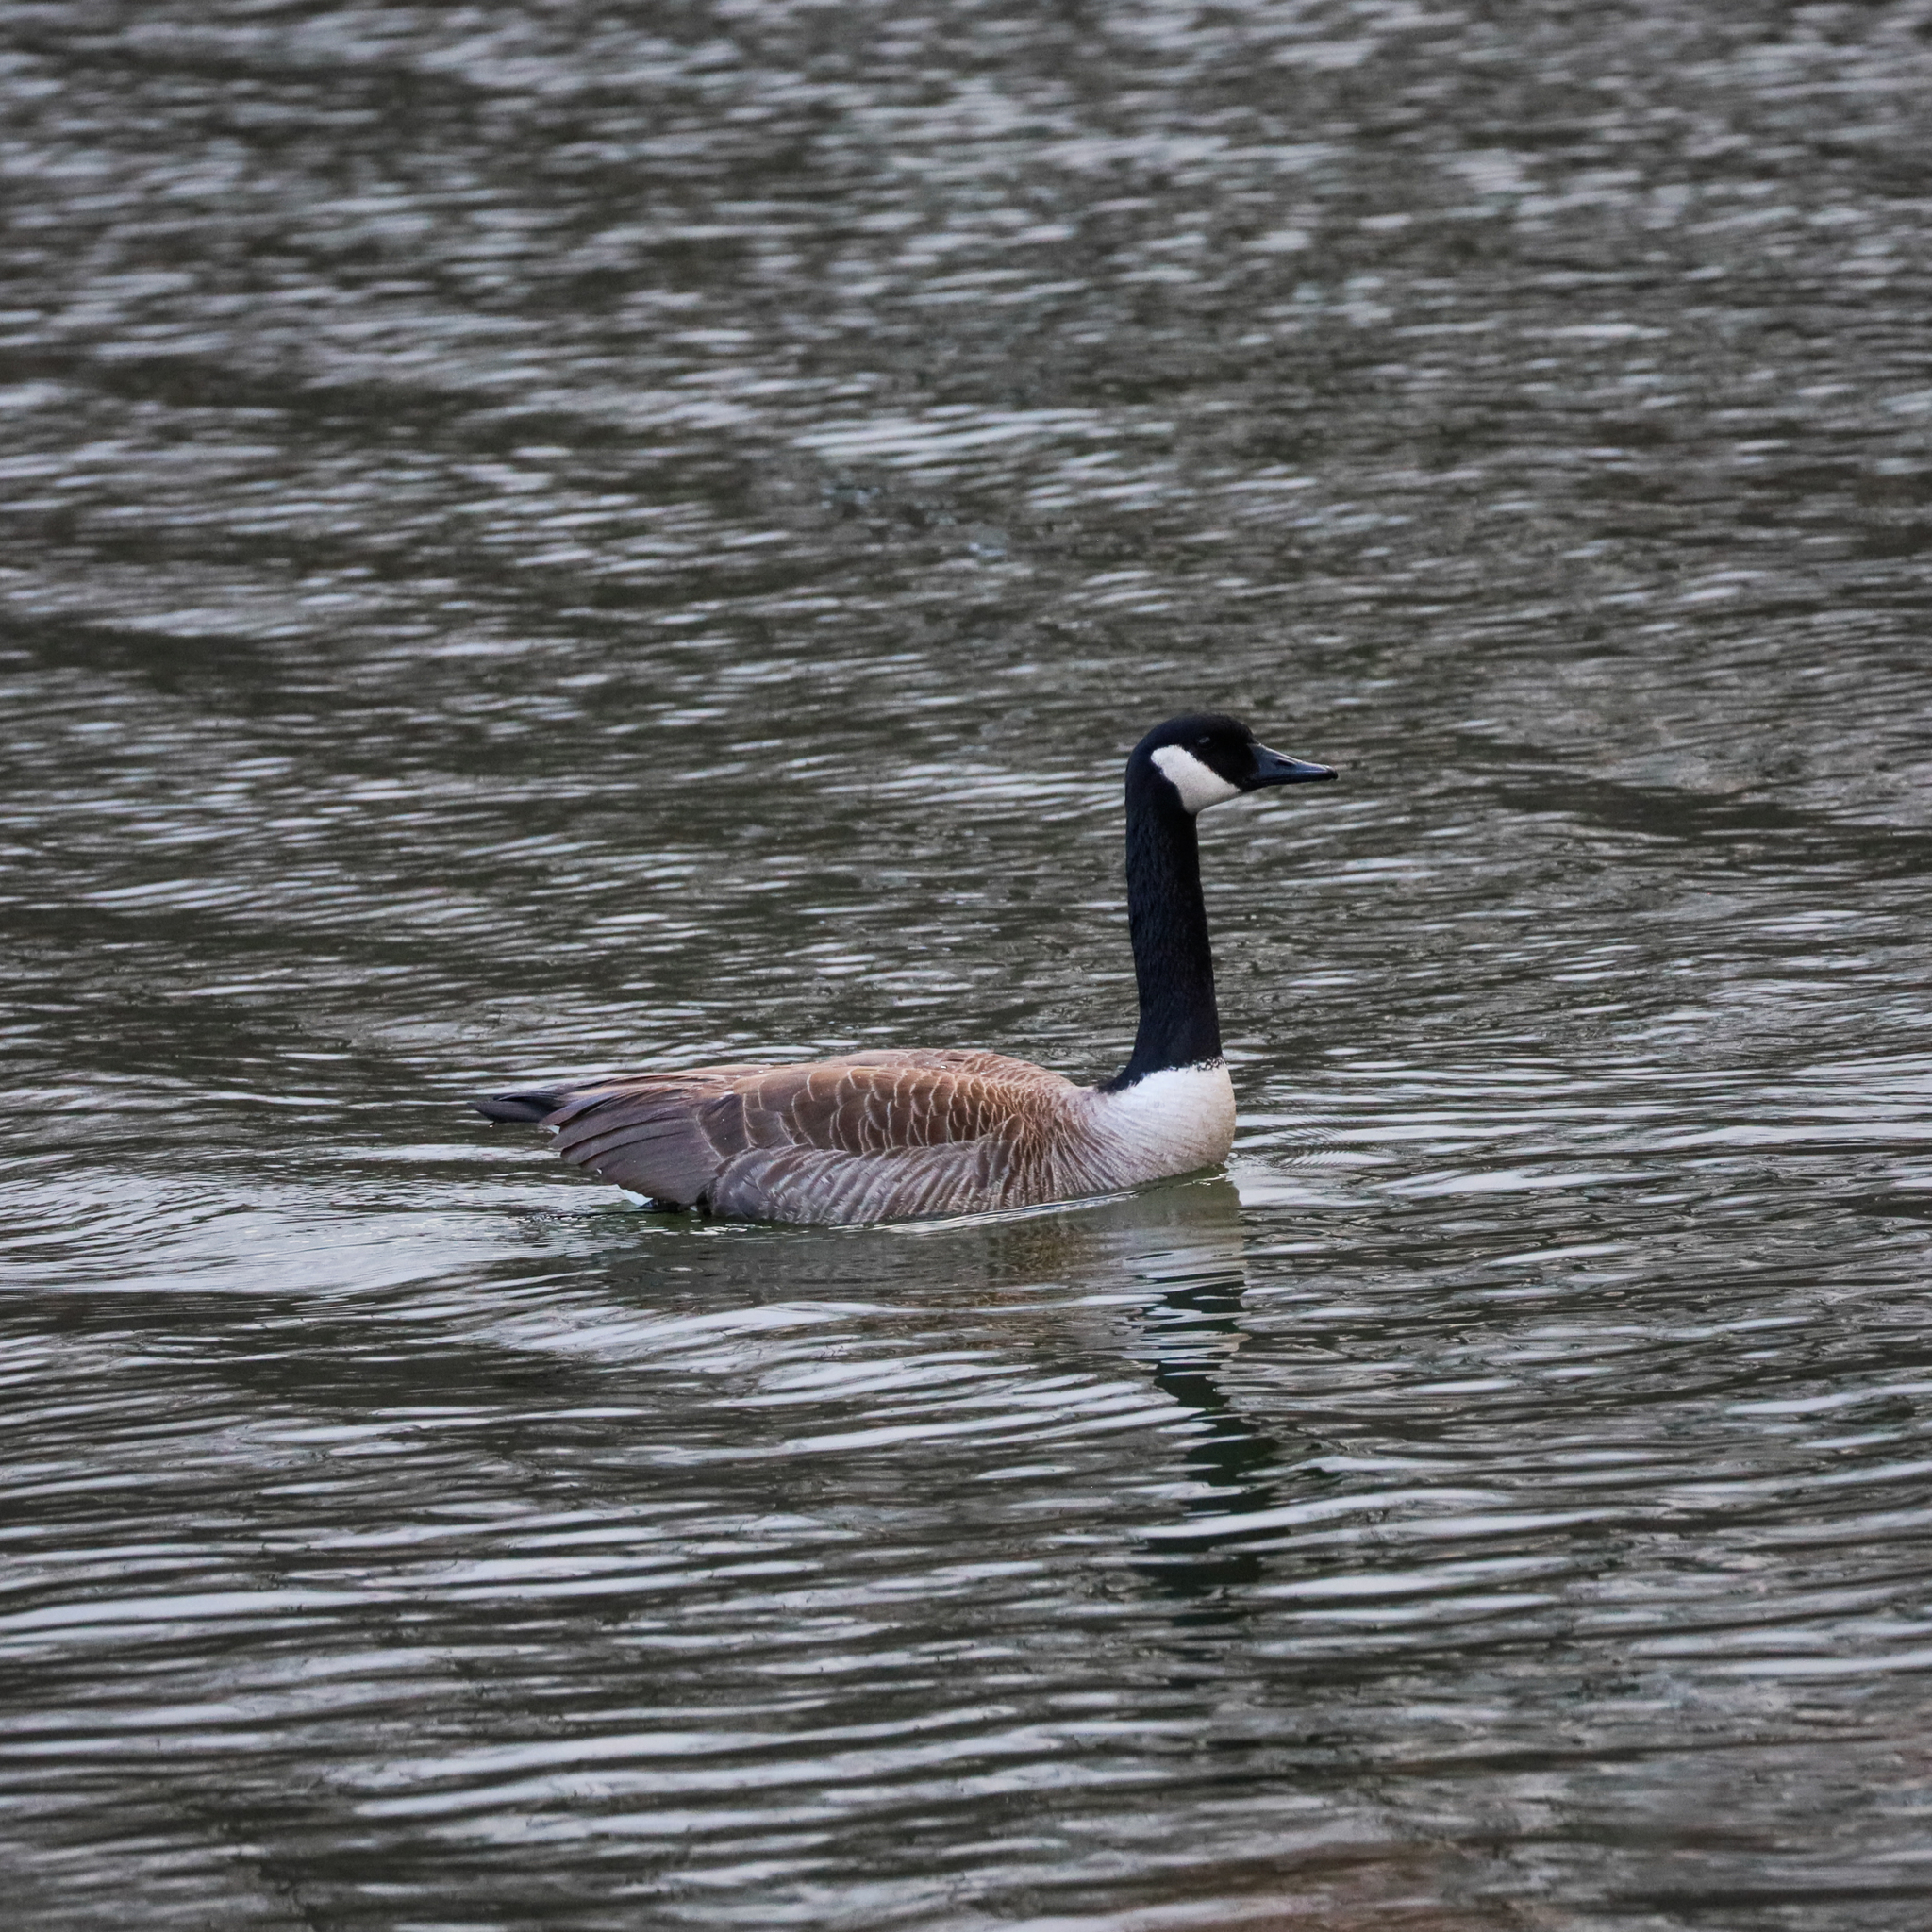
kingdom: Animalia
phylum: Chordata
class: Aves
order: Anseriformes
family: Anatidae
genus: Branta
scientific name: Branta canadensis
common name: Canada goose
